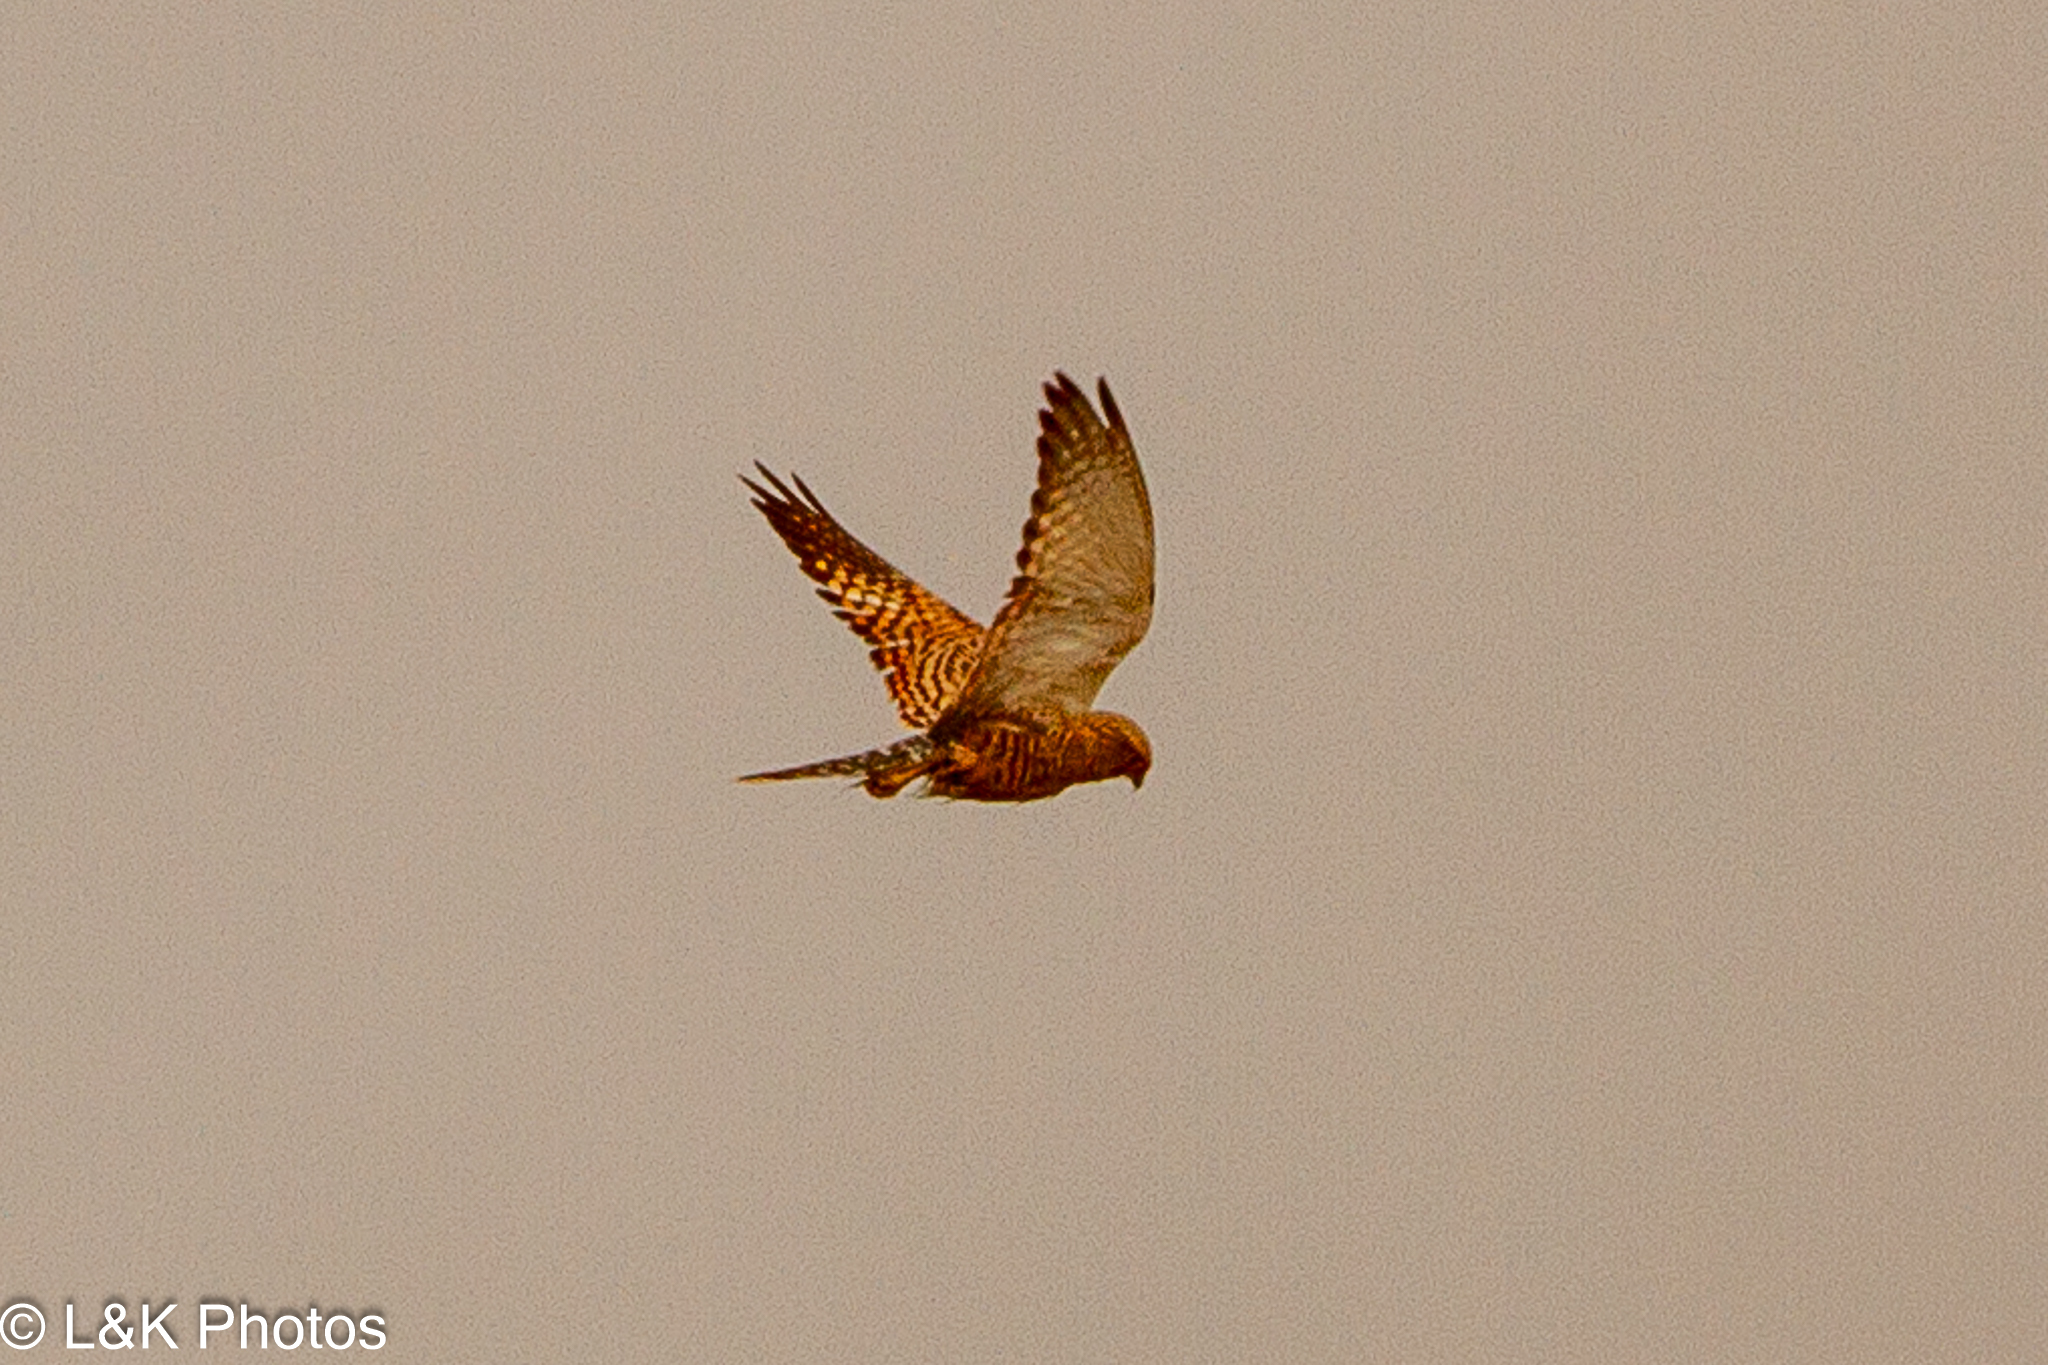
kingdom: Animalia
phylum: Chordata
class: Aves
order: Falconiformes
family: Falconidae
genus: Falco
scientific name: Falco rupicoloides
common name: Greater kestrel
